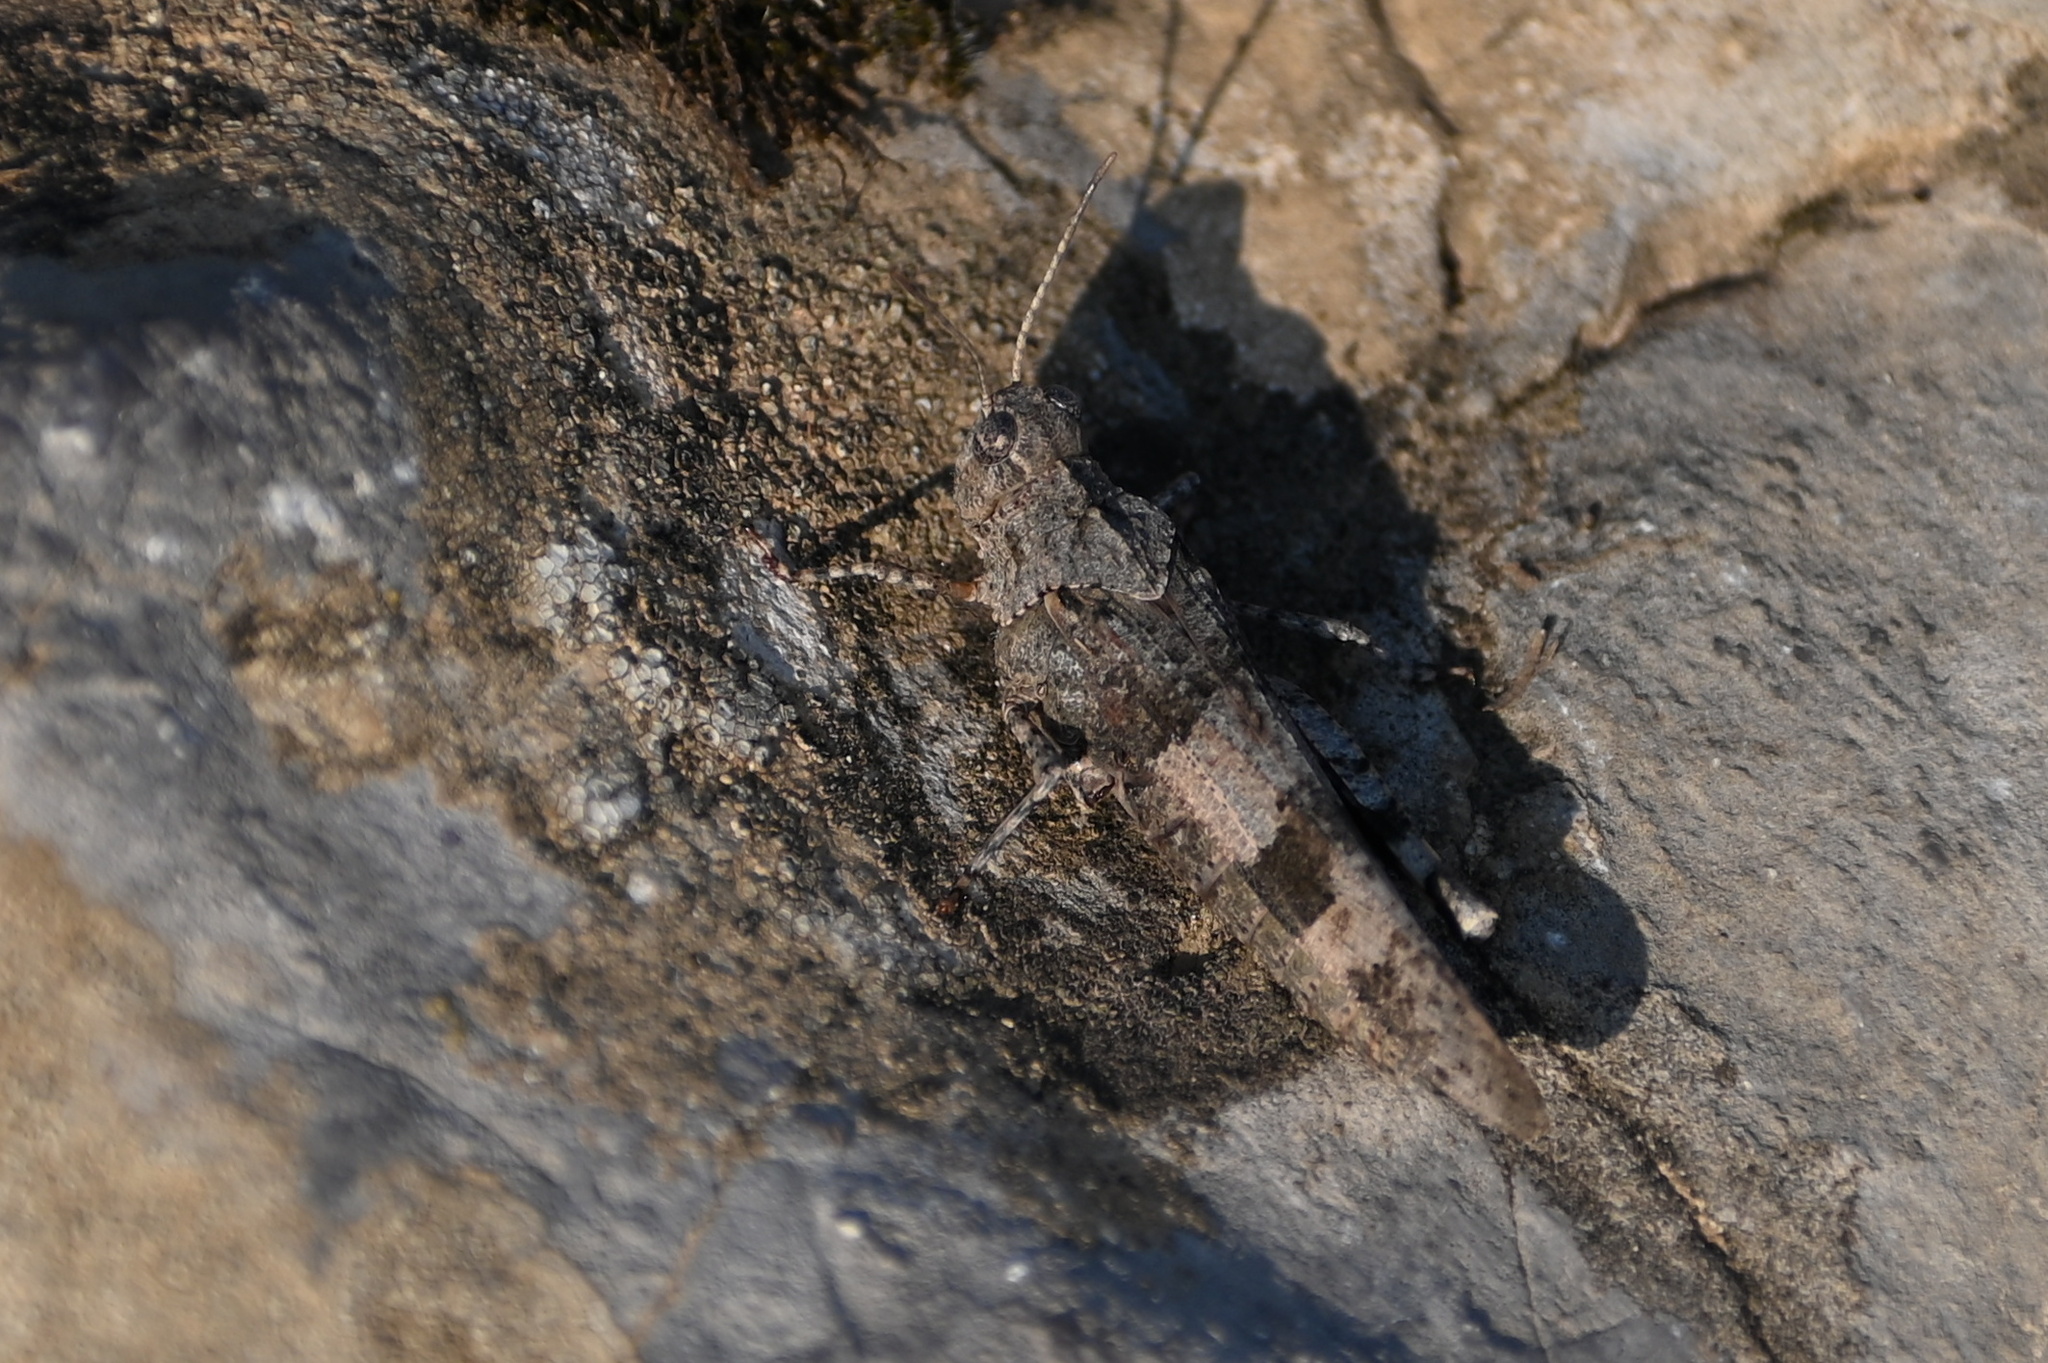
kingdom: Animalia
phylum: Arthropoda
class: Insecta
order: Orthoptera
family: Acrididae
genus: Oedipoda
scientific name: Oedipoda caerulescens
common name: Blue-winged grasshopper
